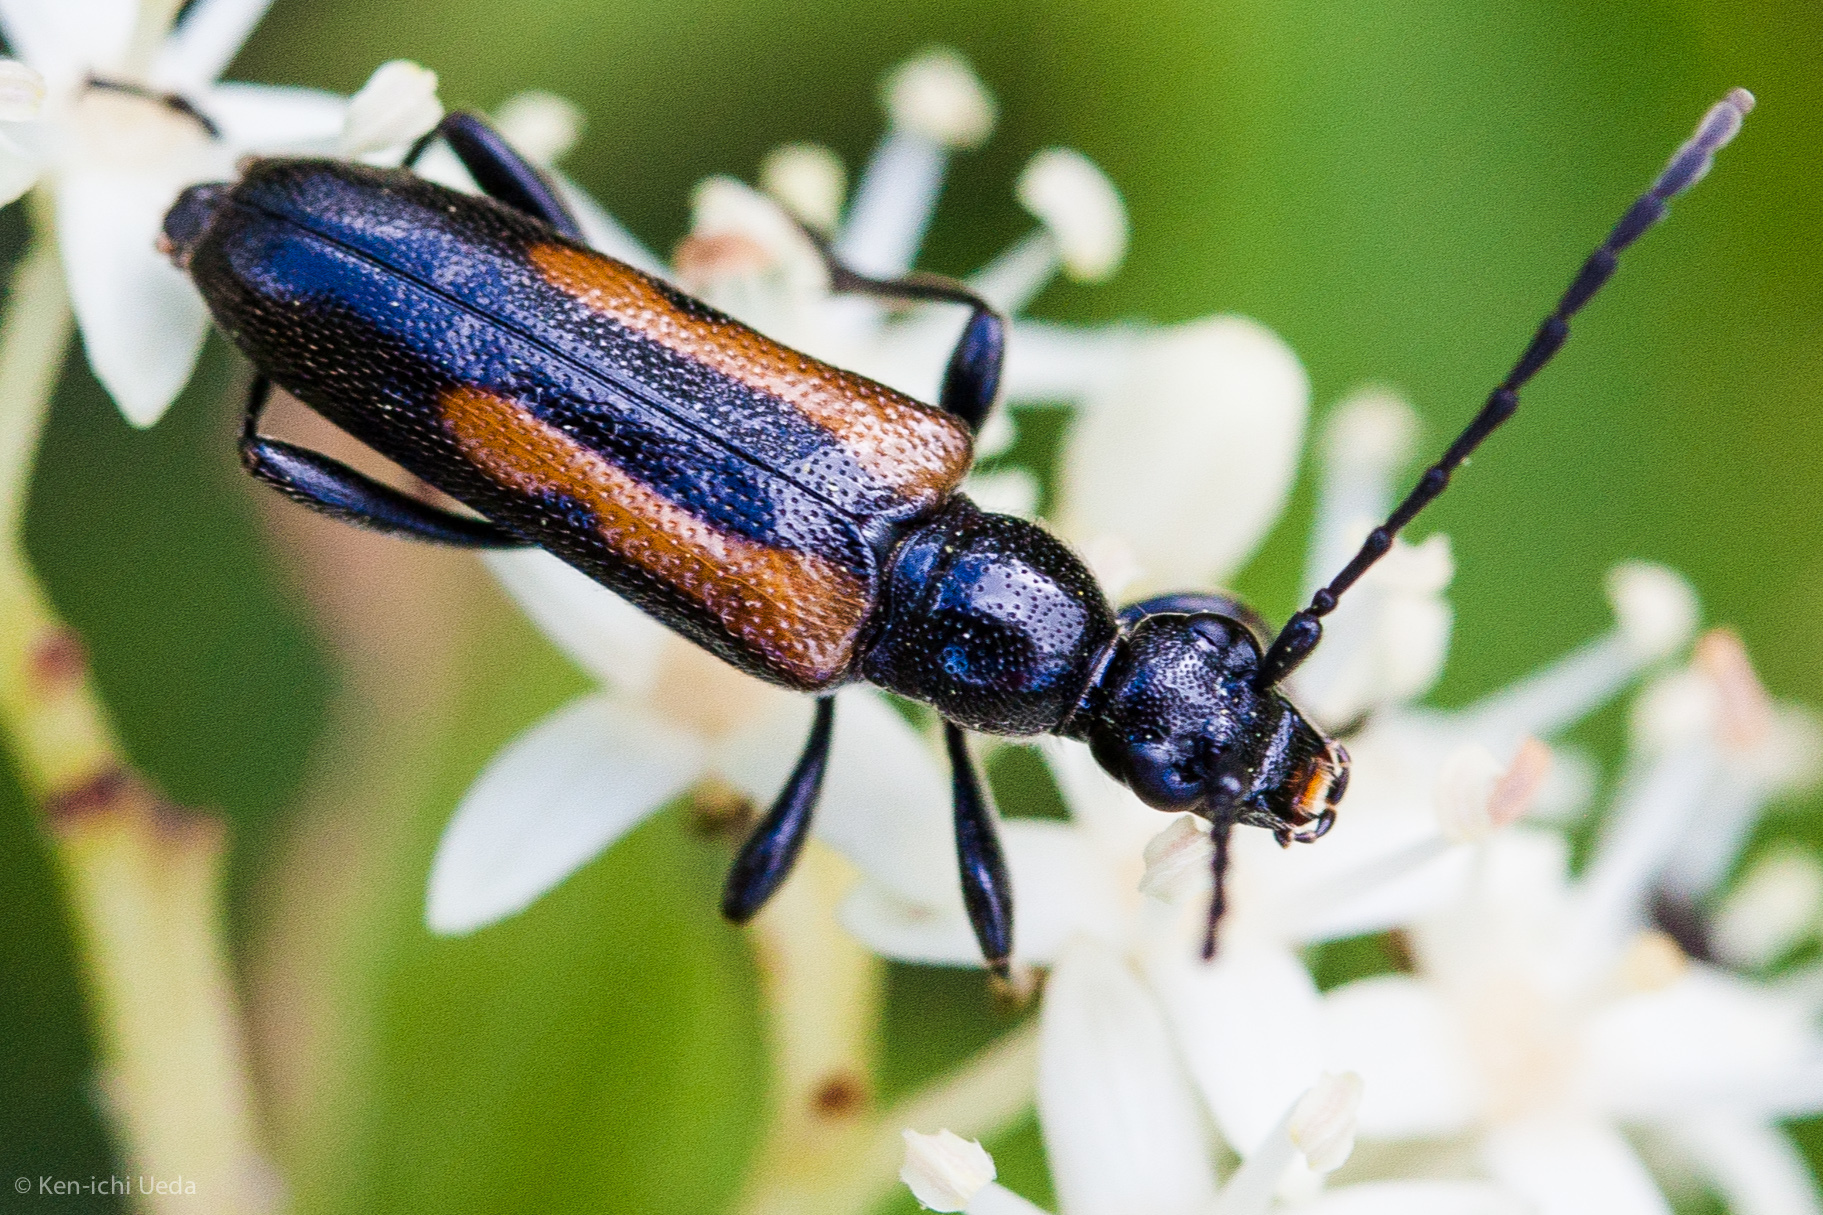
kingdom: Animalia
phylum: Arthropoda
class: Insecta
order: Coleoptera
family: Cerambycidae
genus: Strangalepta
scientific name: Strangalepta abbreviata
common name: Strangalepta flower longhorn beetle
